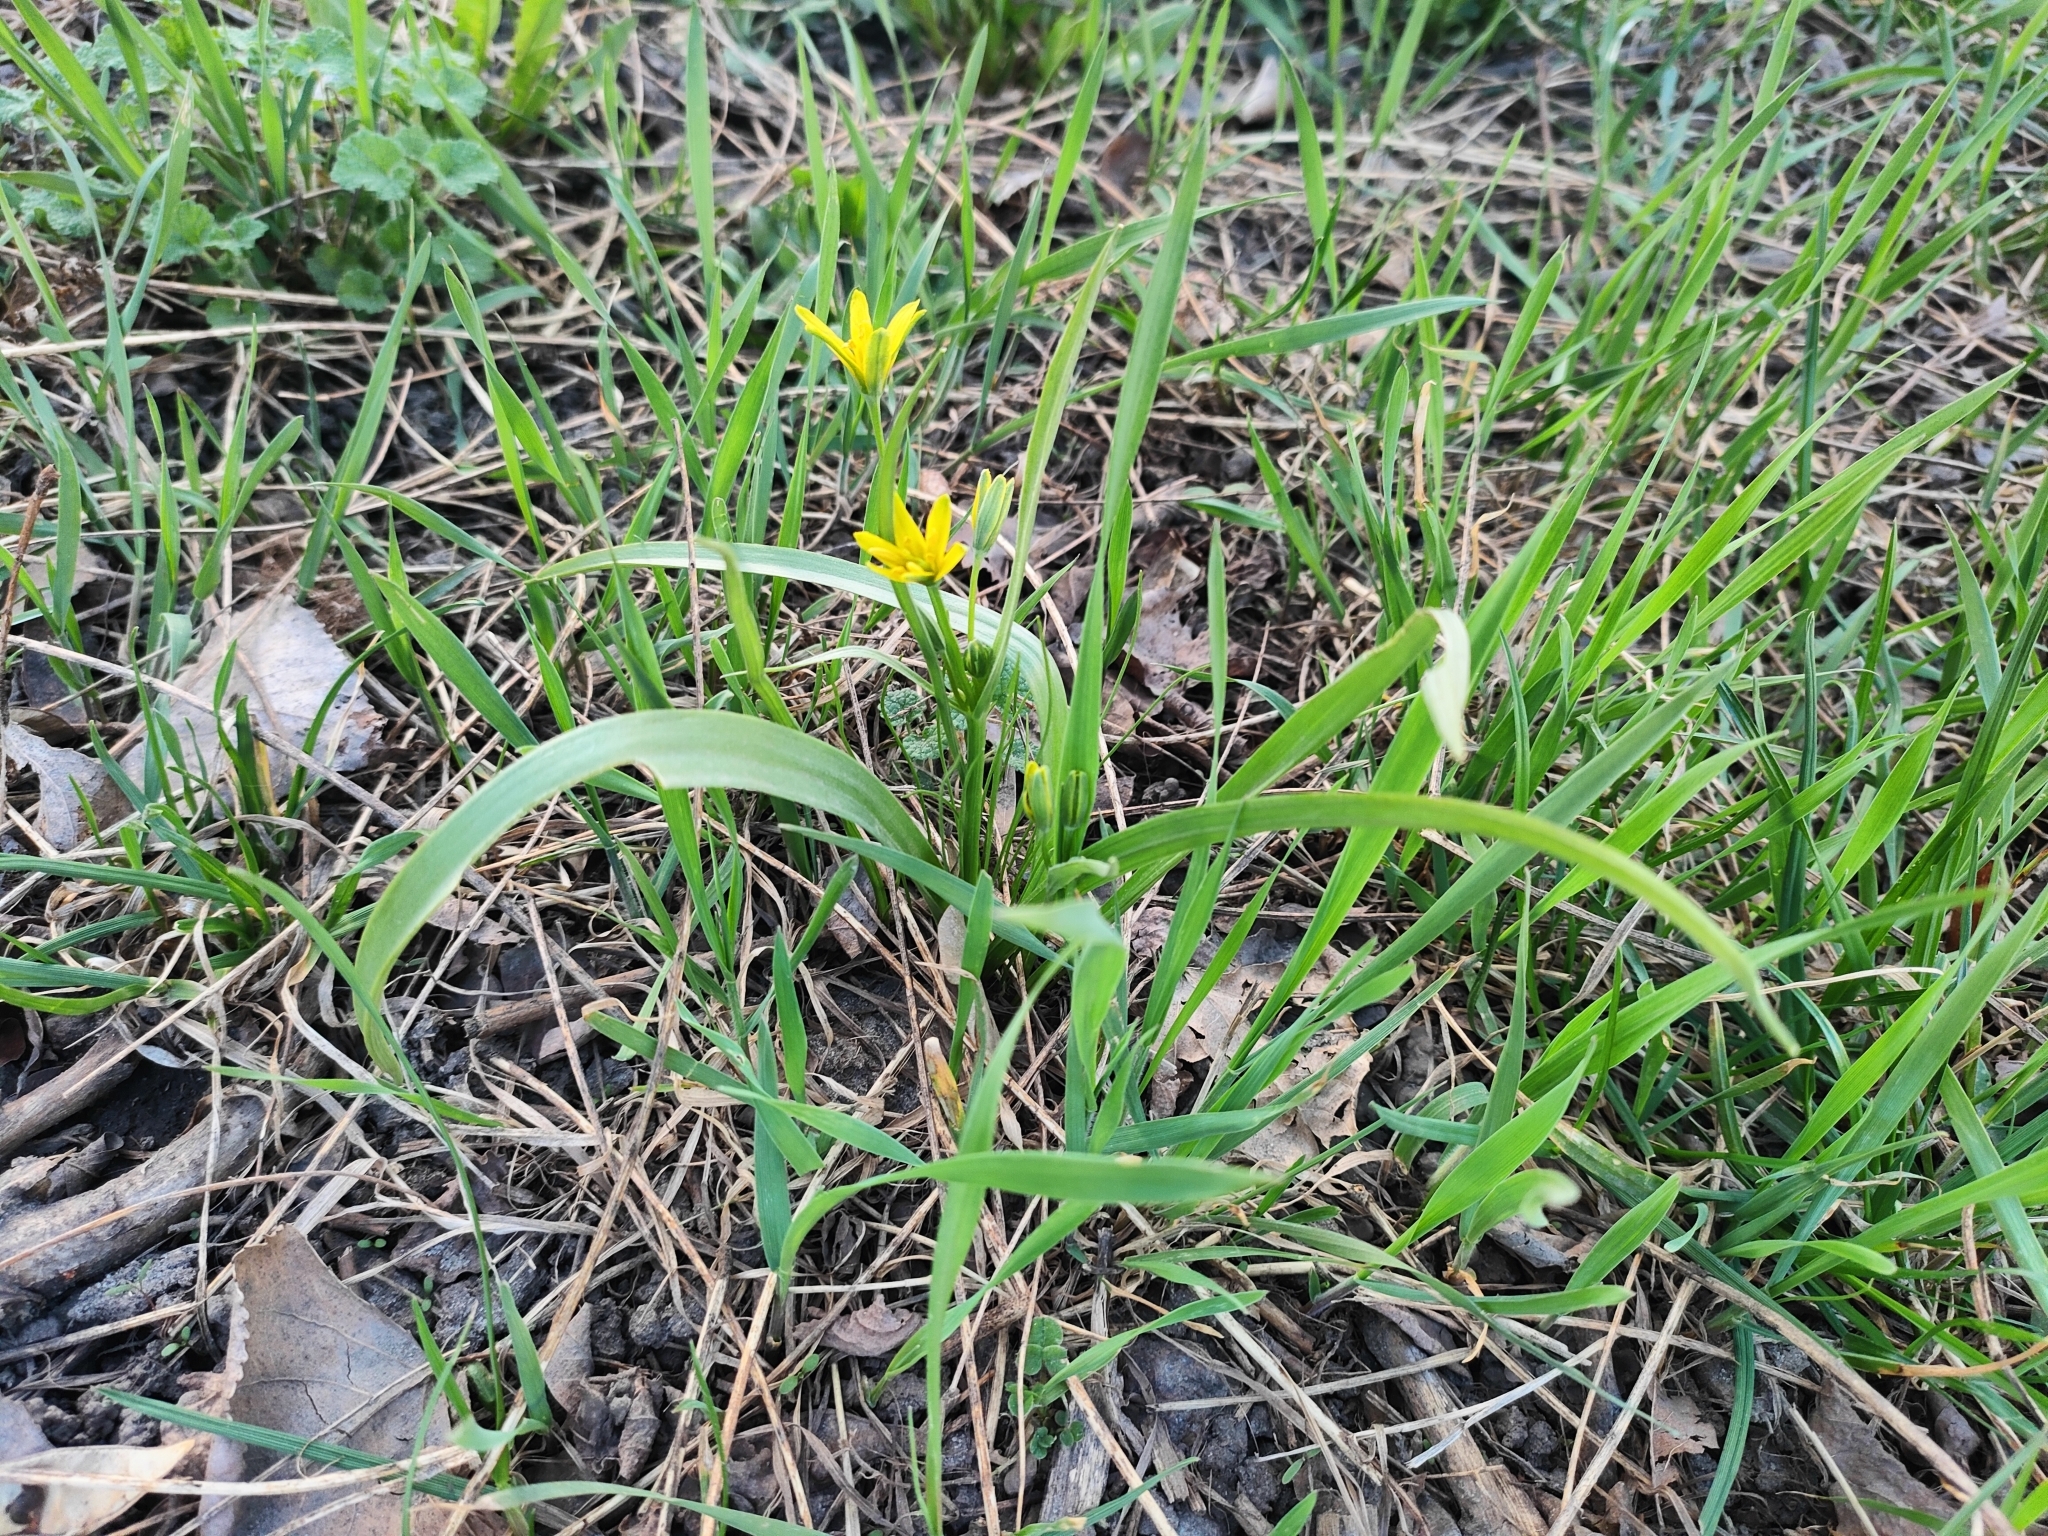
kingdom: Plantae
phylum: Tracheophyta
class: Liliopsida
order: Liliales
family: Liliaceae
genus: Gagea
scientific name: Gagea lutea
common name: Yellow star-of-bethlehem
